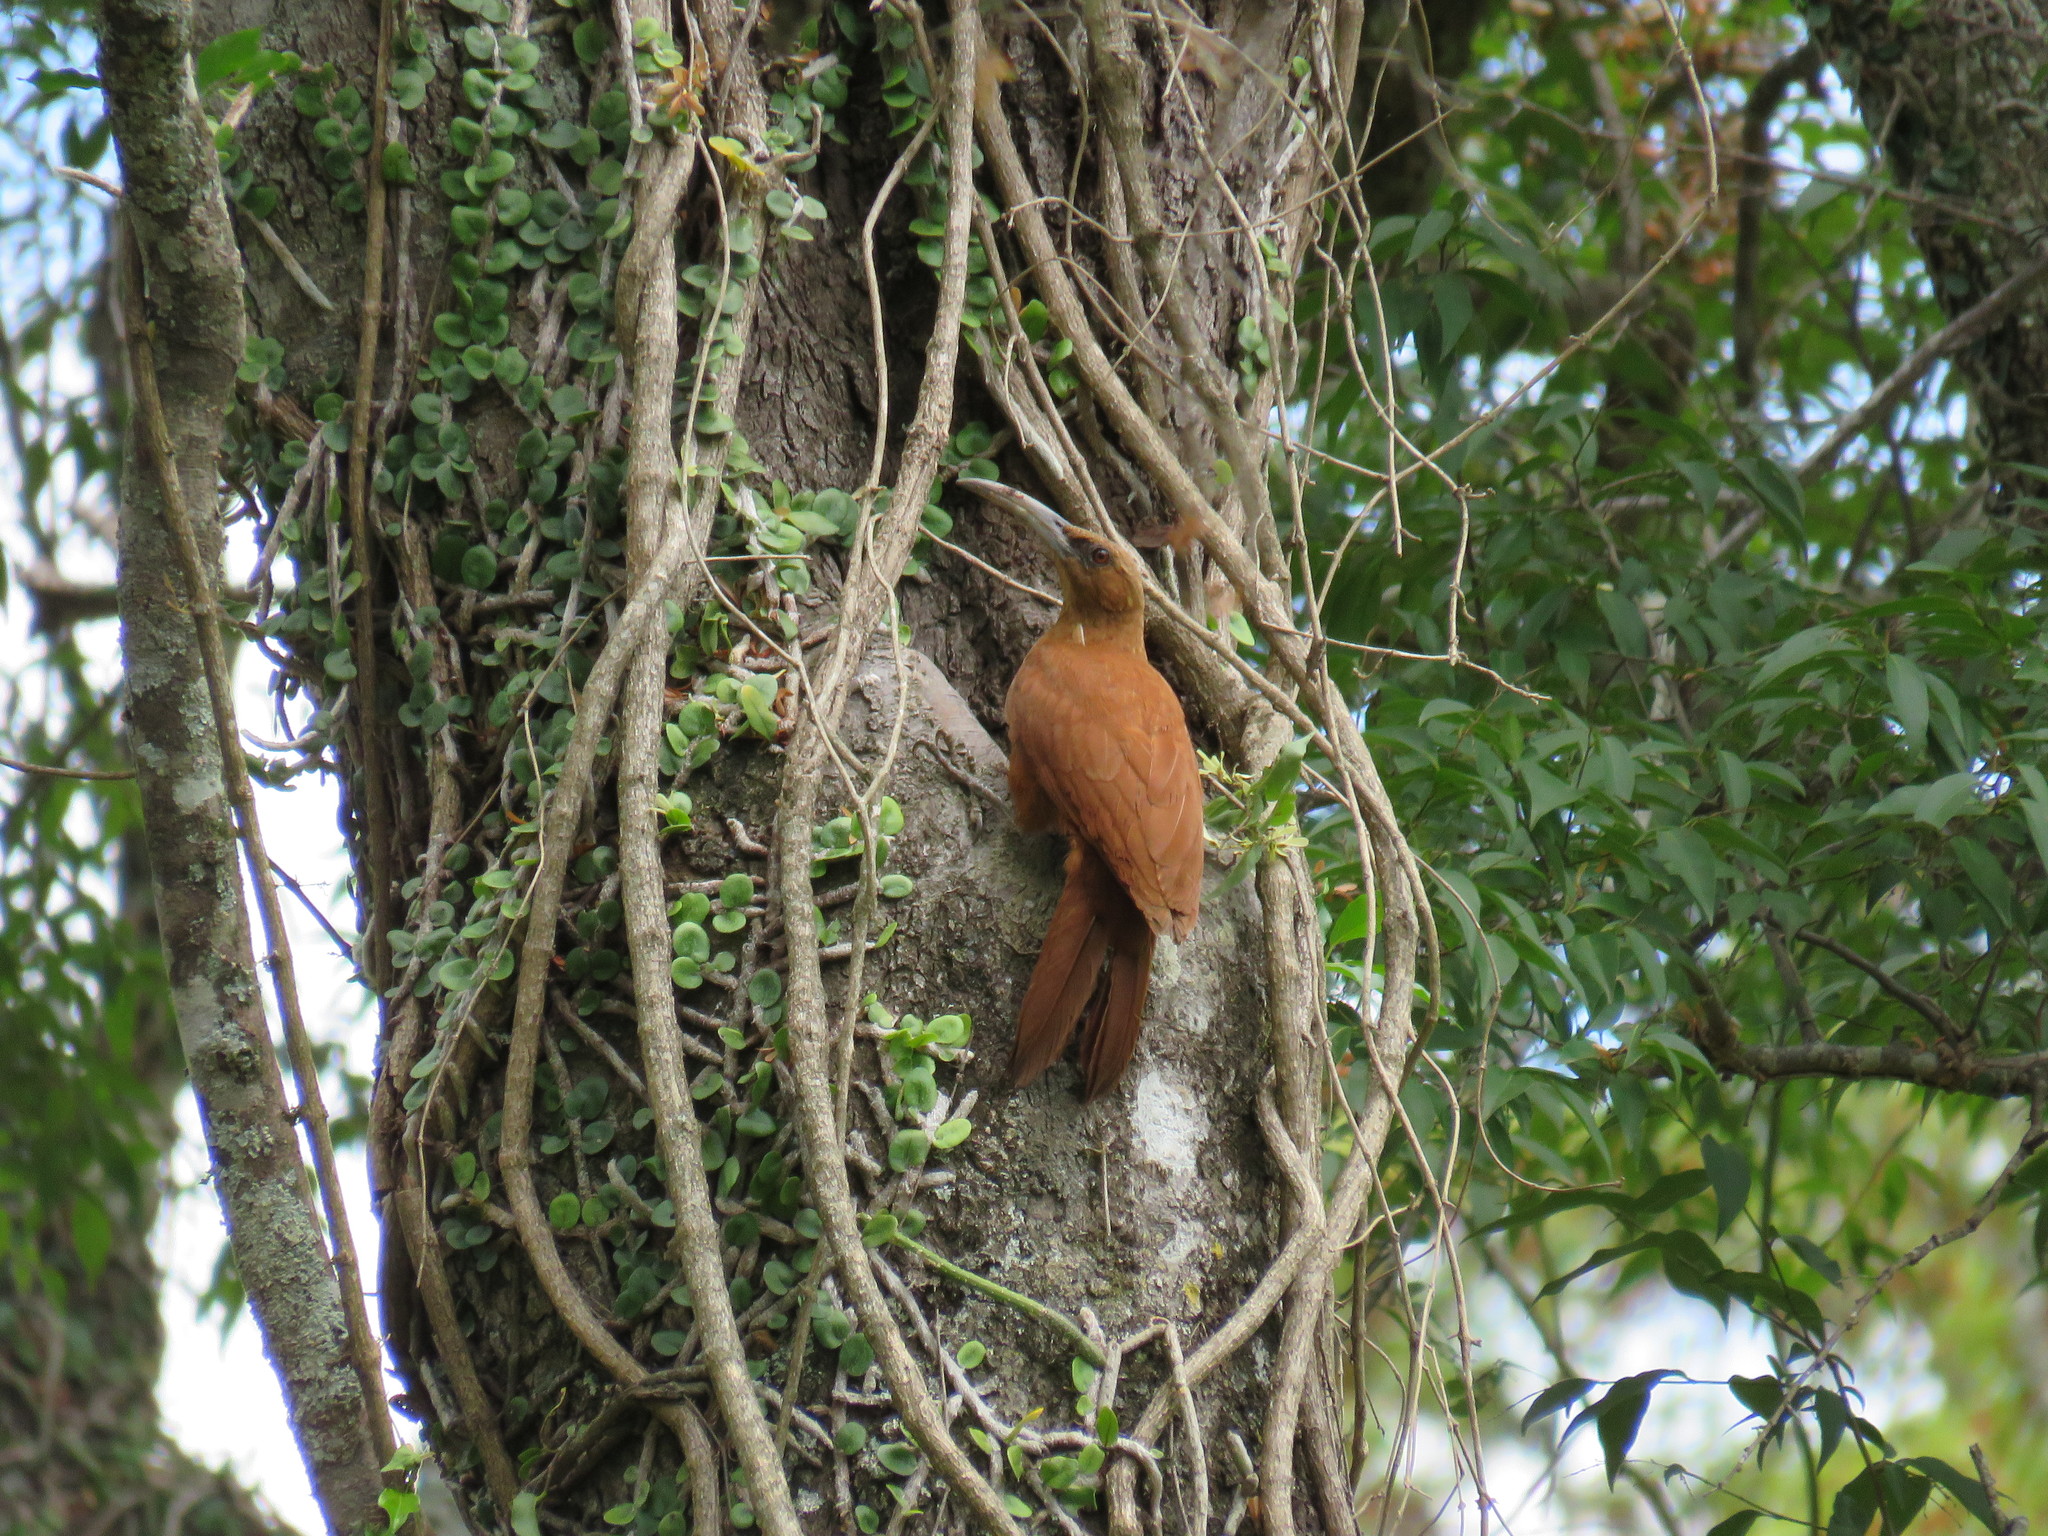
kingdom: Animalia
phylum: Chordata
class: Aves
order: Passeriformes
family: Furnariidae
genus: Xiphocolaptes
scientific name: Xiphocolaptes major
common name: Great rufous woodcreeper
